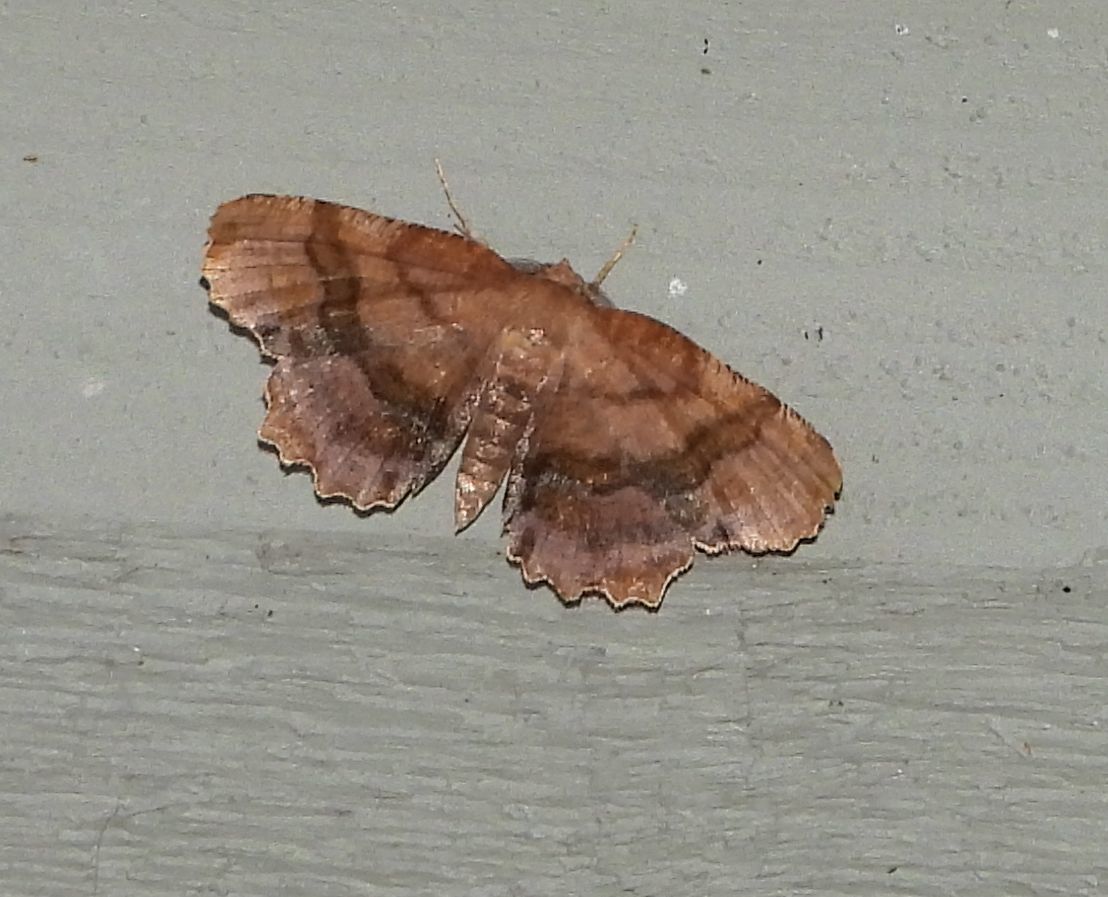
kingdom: Animalia
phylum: Arthropoda
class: Insecta
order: Lepidoptera
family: Geometridae
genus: Cepphis
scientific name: Cepphis armataria
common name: Scallop moth
